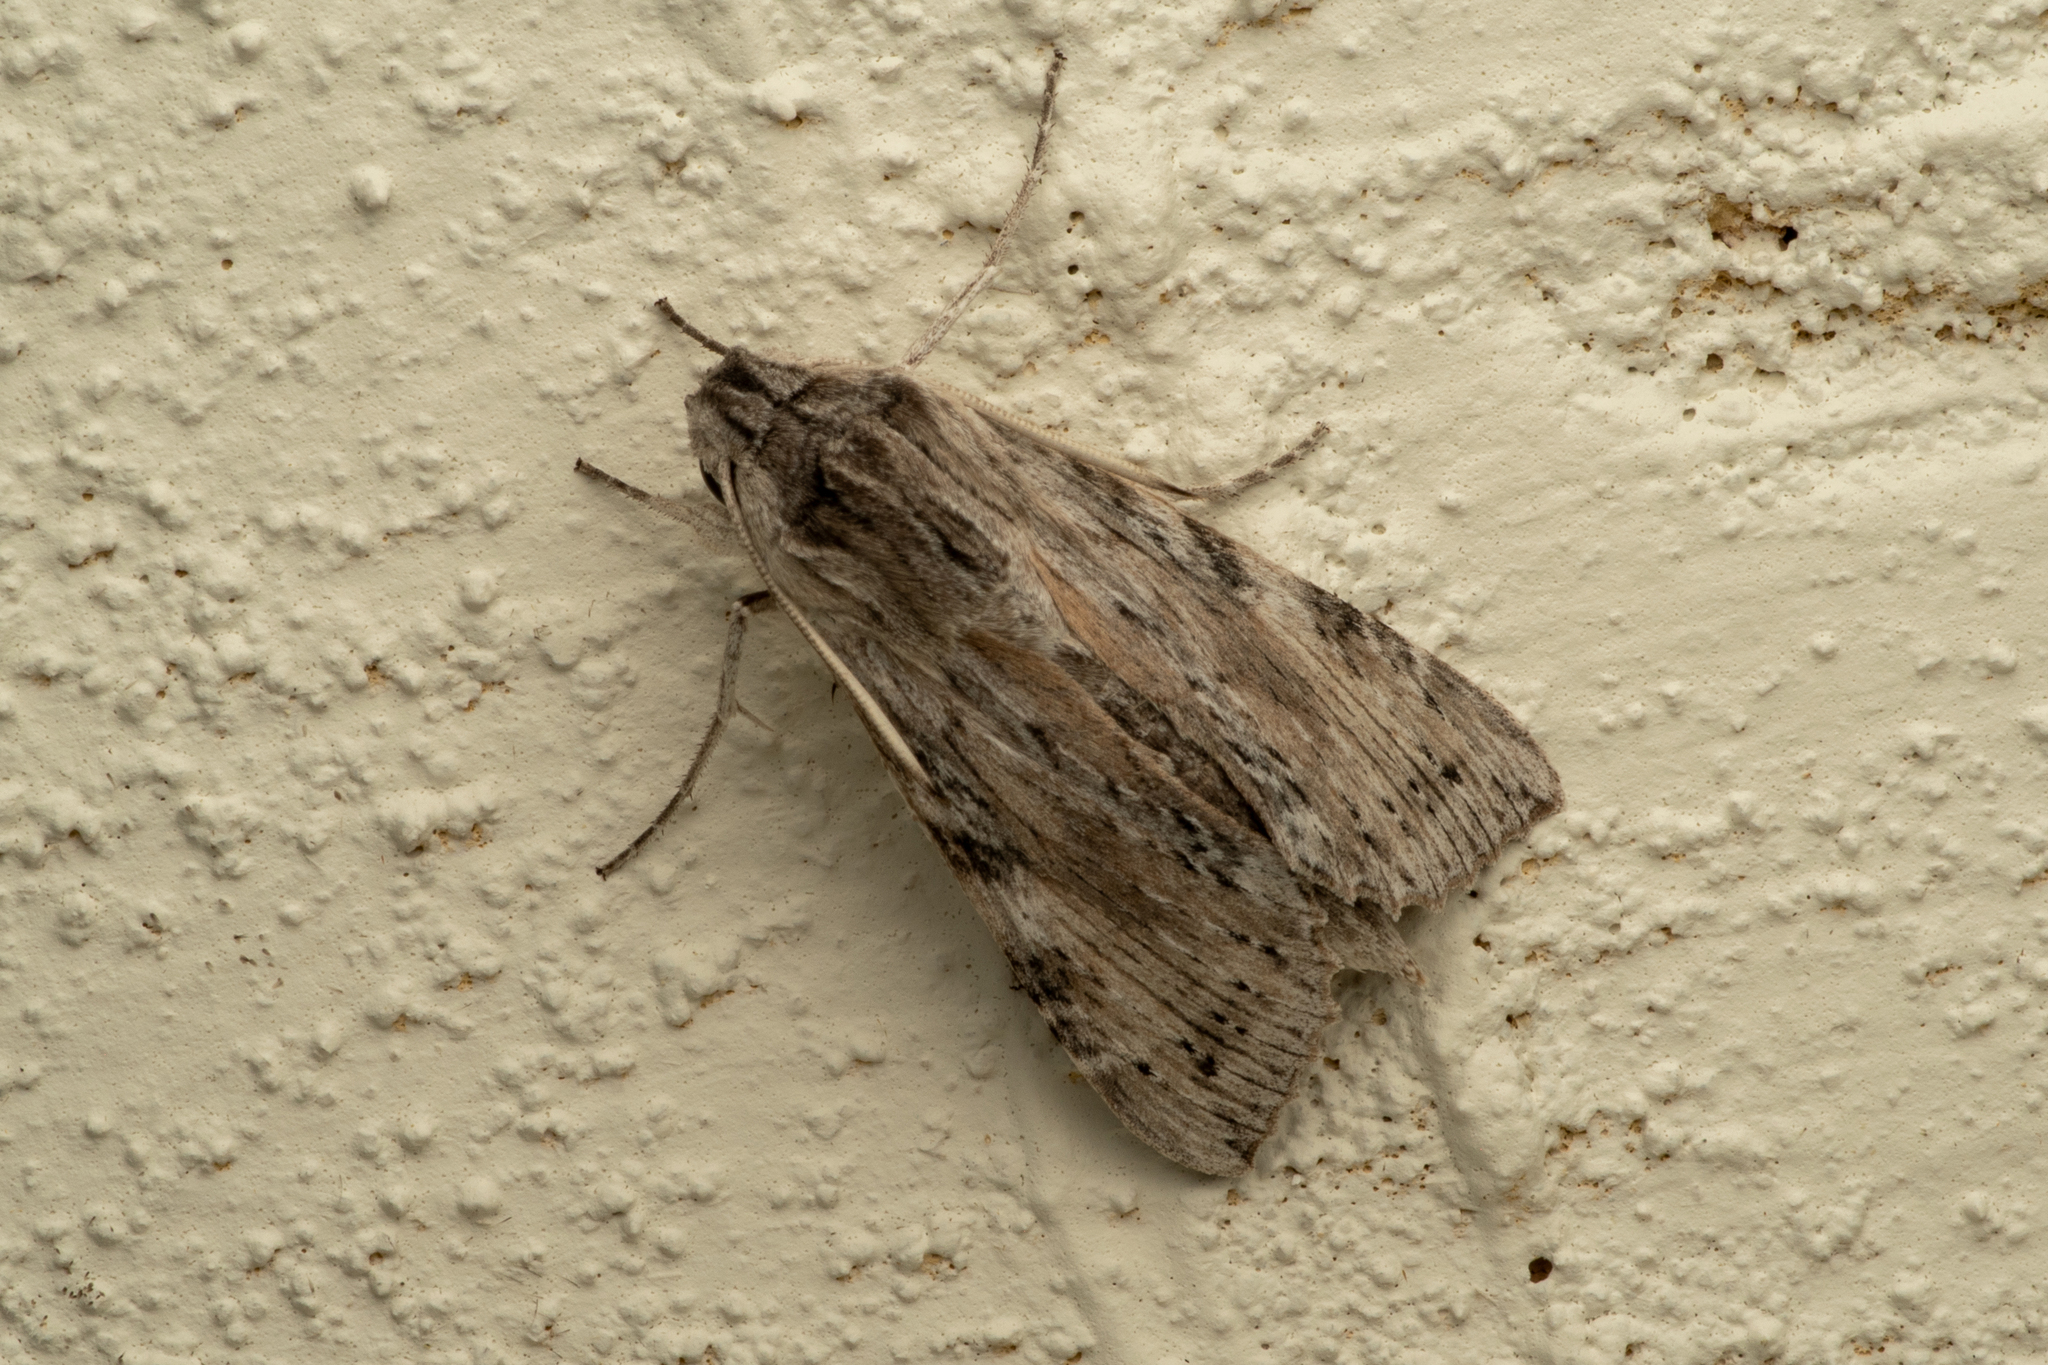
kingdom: Animalia
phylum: Arthropoda
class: Insecta
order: Lepidoptera
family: Sphingidae
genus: Erinnyis
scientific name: Erinnyis guttularis
